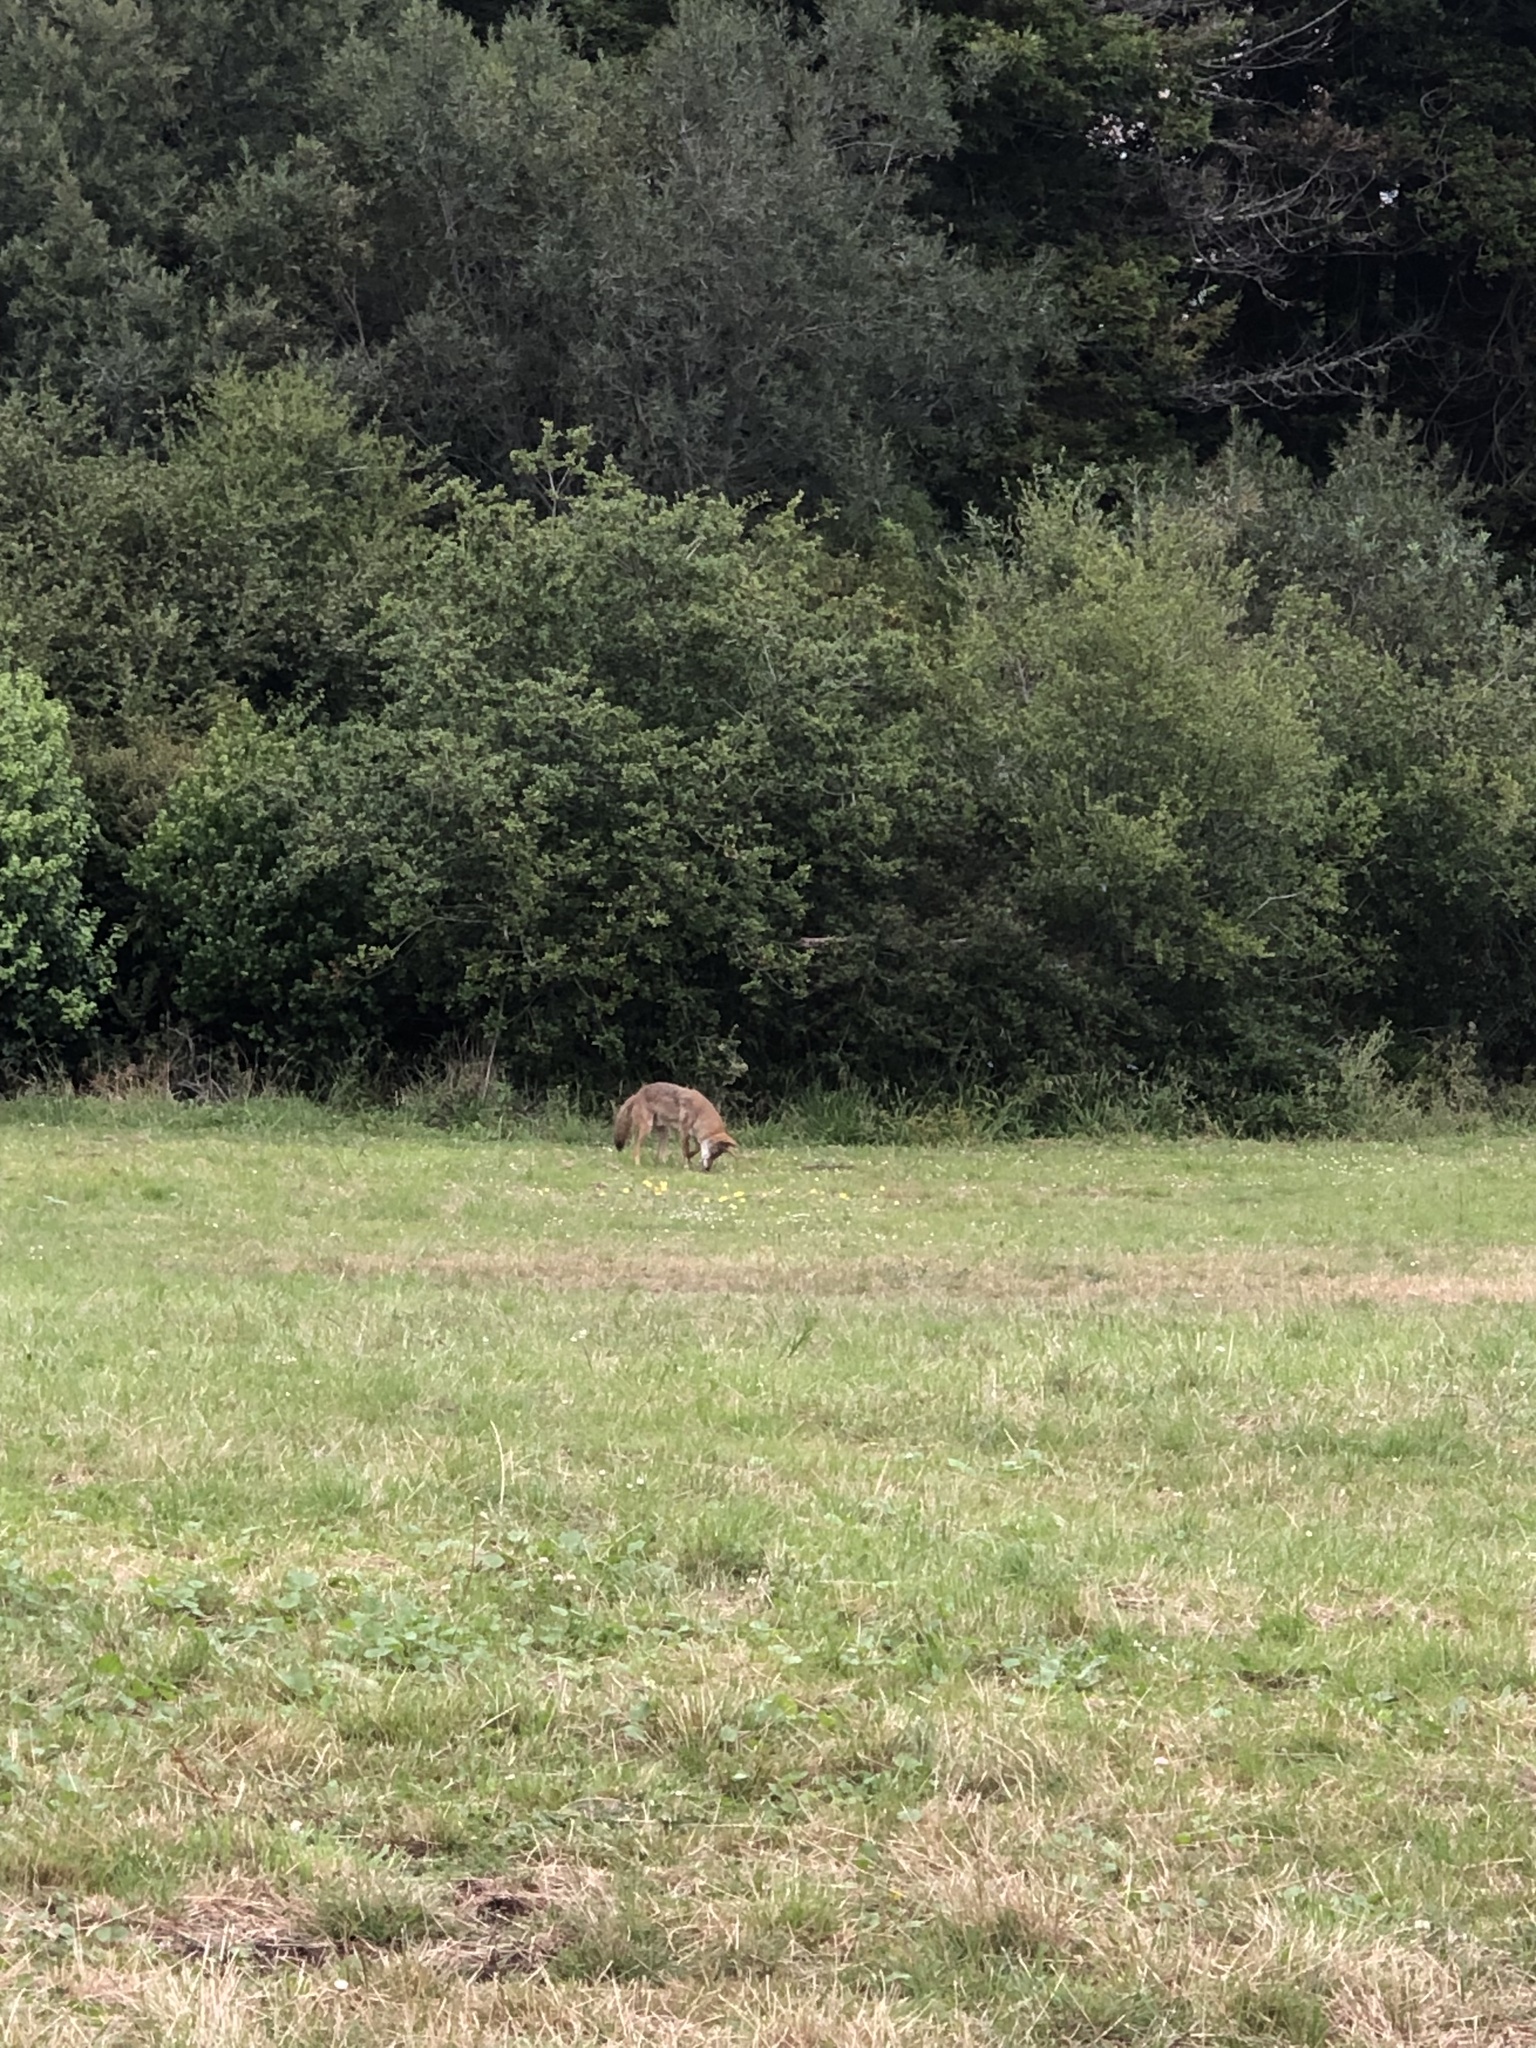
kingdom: Animalia
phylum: Chordata
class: Mammalia
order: Carnivora
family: Canidae
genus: Canis
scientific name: Canis latrans
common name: Coyote
